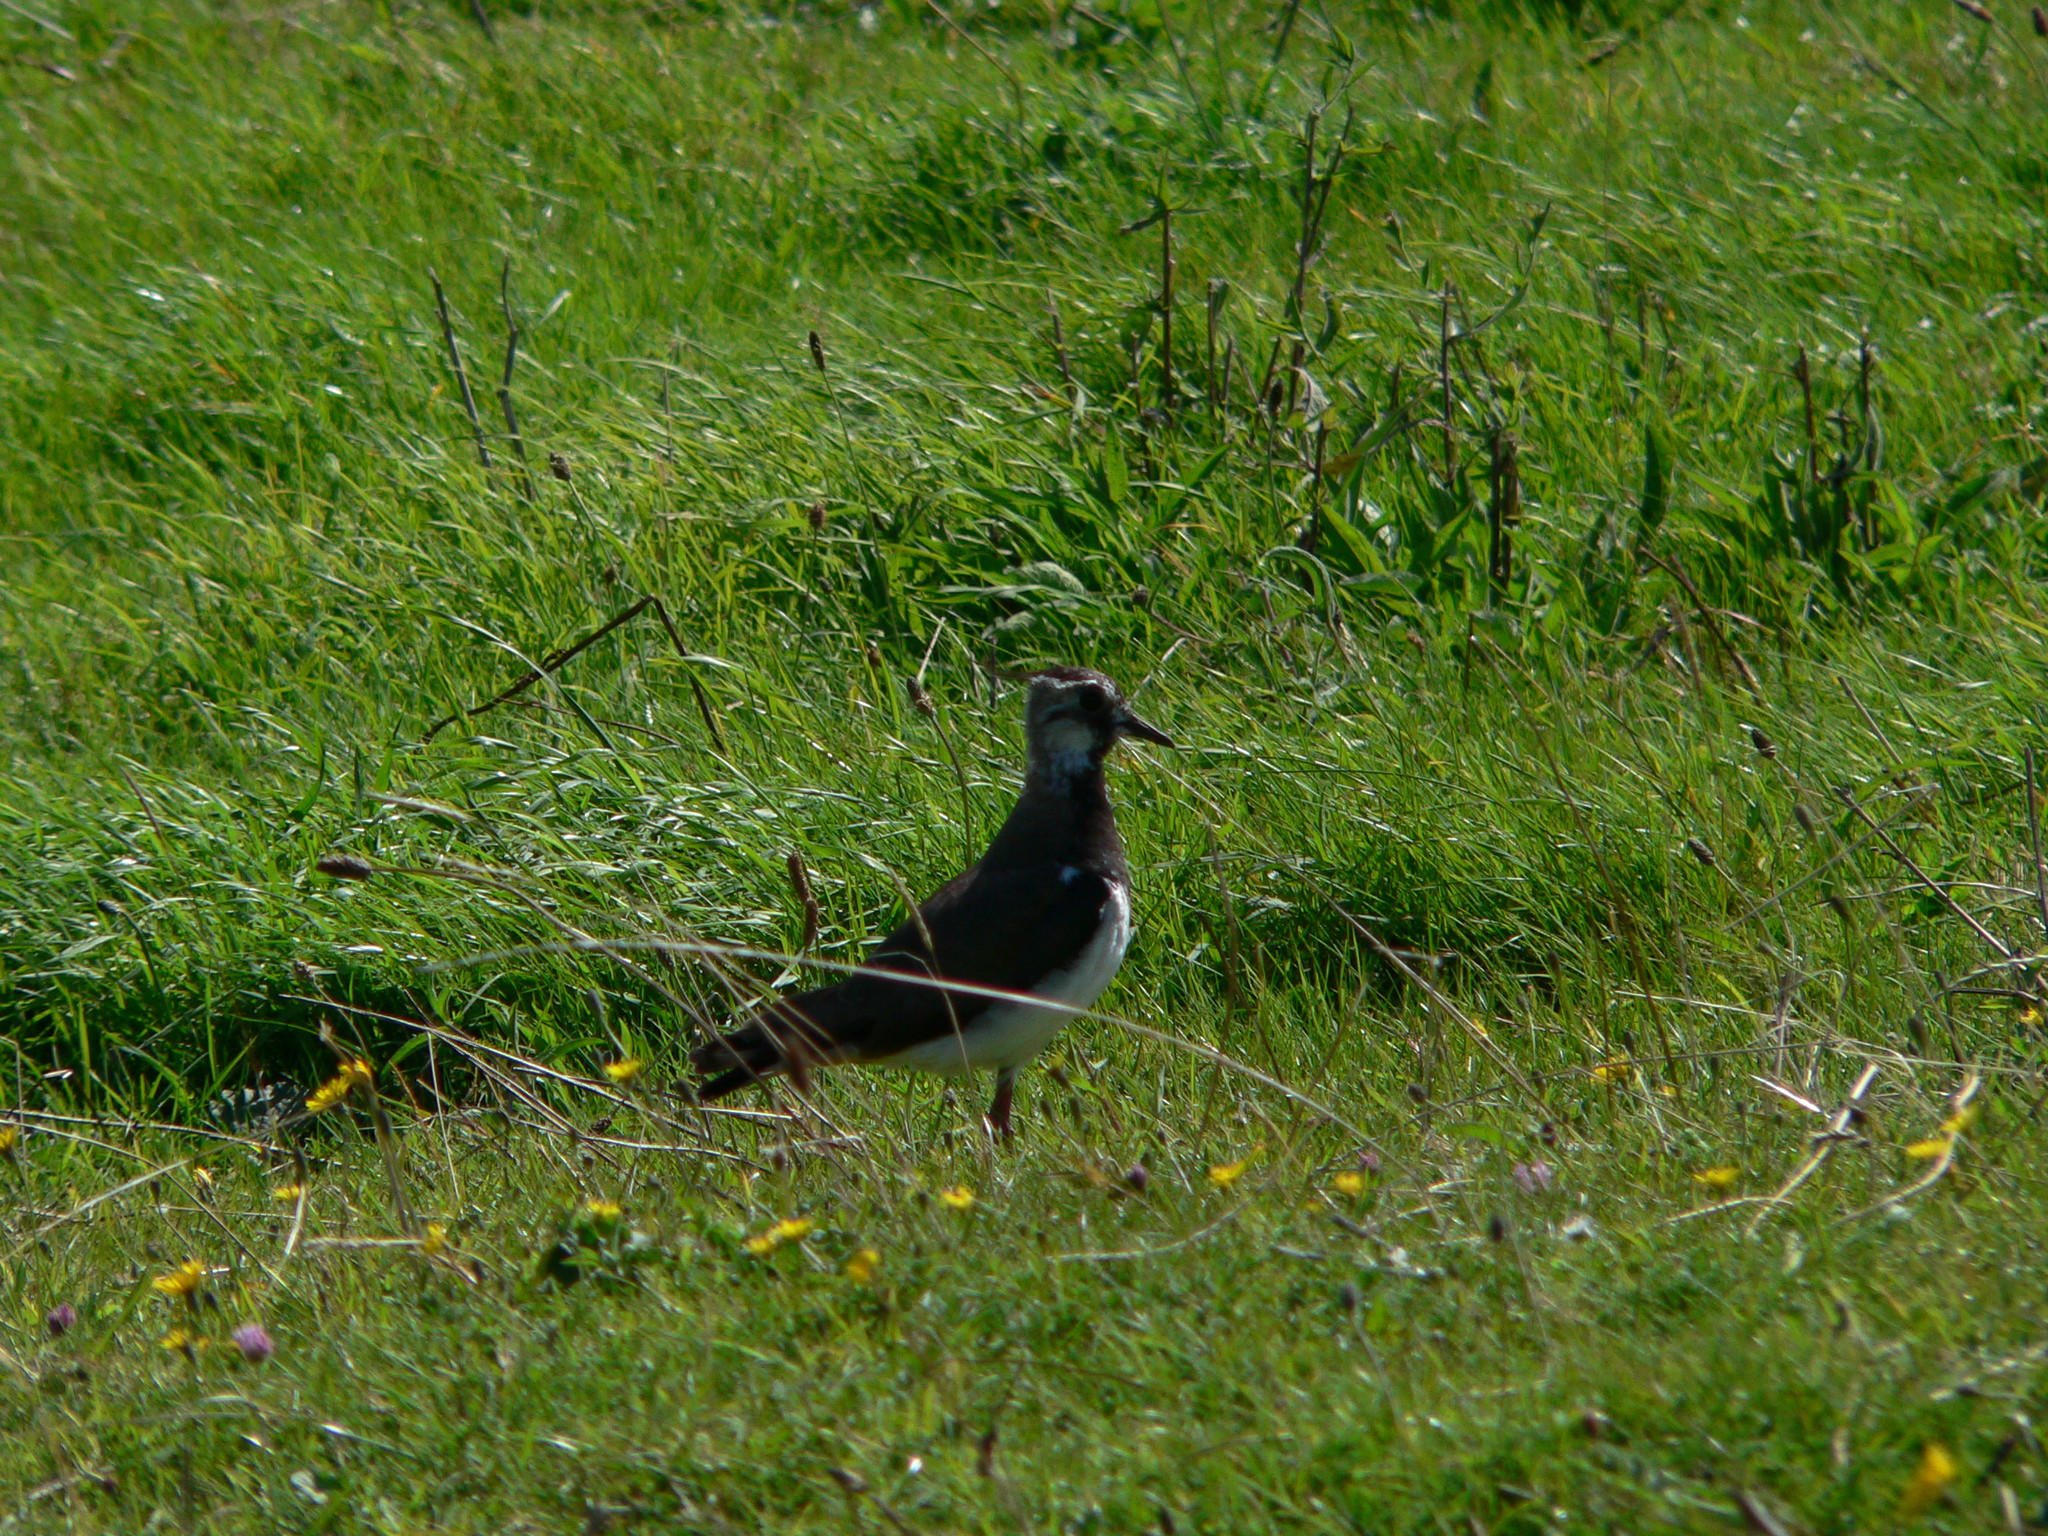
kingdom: Animalia
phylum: Chordata
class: Aves
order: Charadriiformes
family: Charadriidae
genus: Vanellus
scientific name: Vanellus vanellus
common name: Northern lapwing
